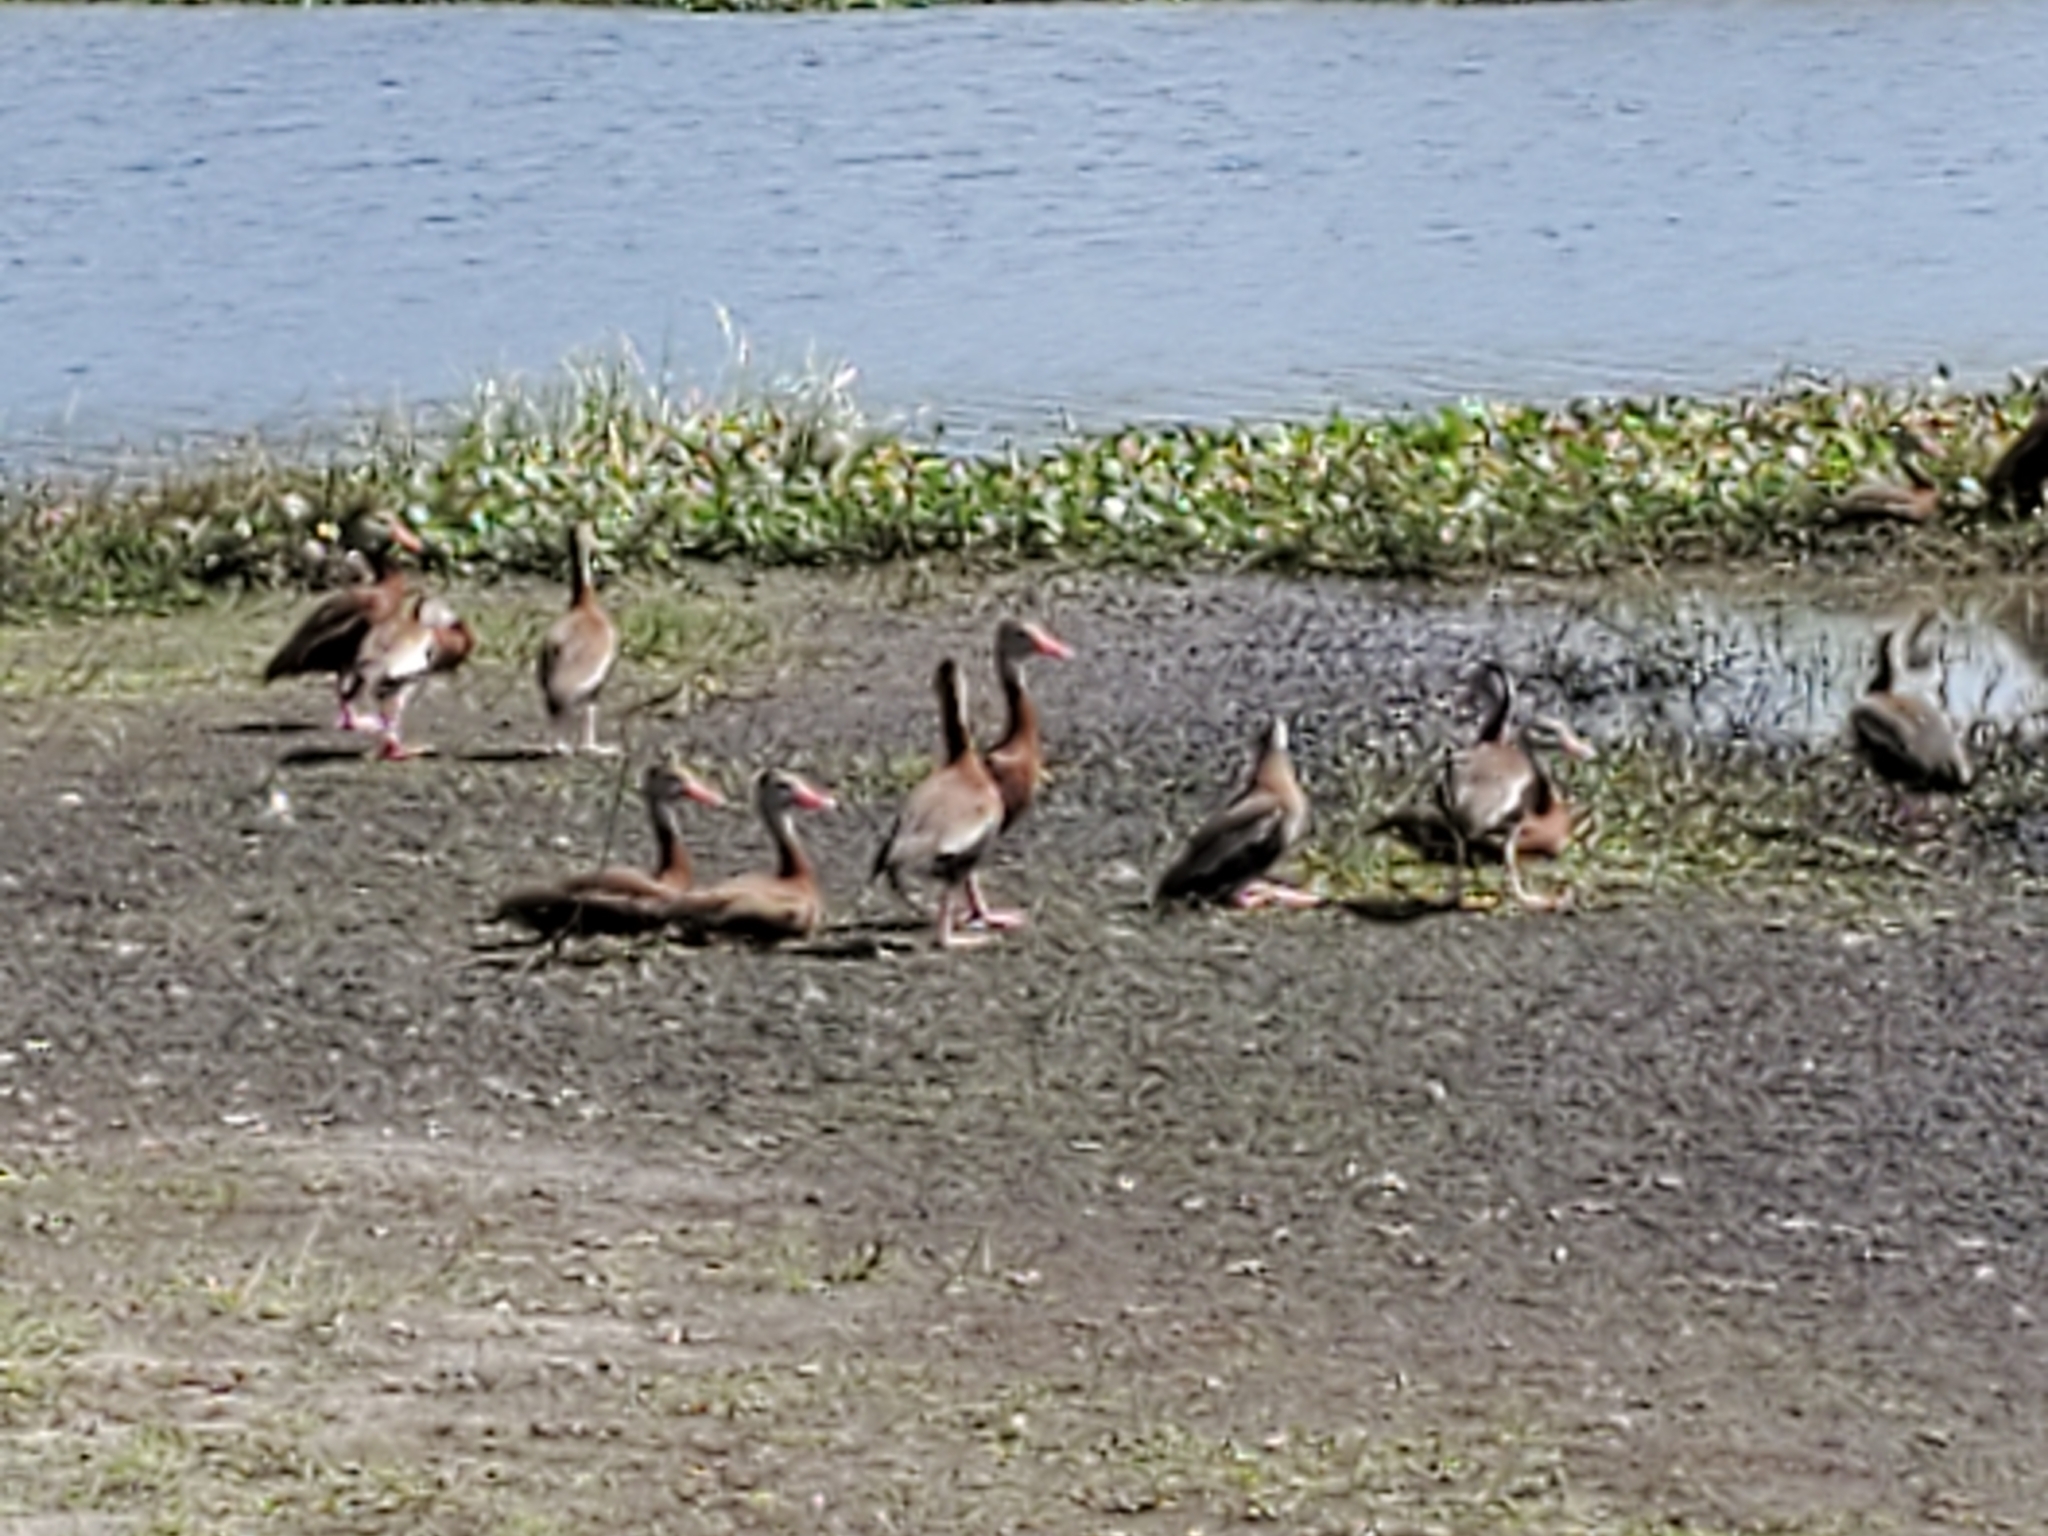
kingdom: Animalia
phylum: Chordata
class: Aves
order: Anseriformes
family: Anatidae
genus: Dendrocygna
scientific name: Dendrocygna autumnalis
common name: Black-bellied whistling duck
